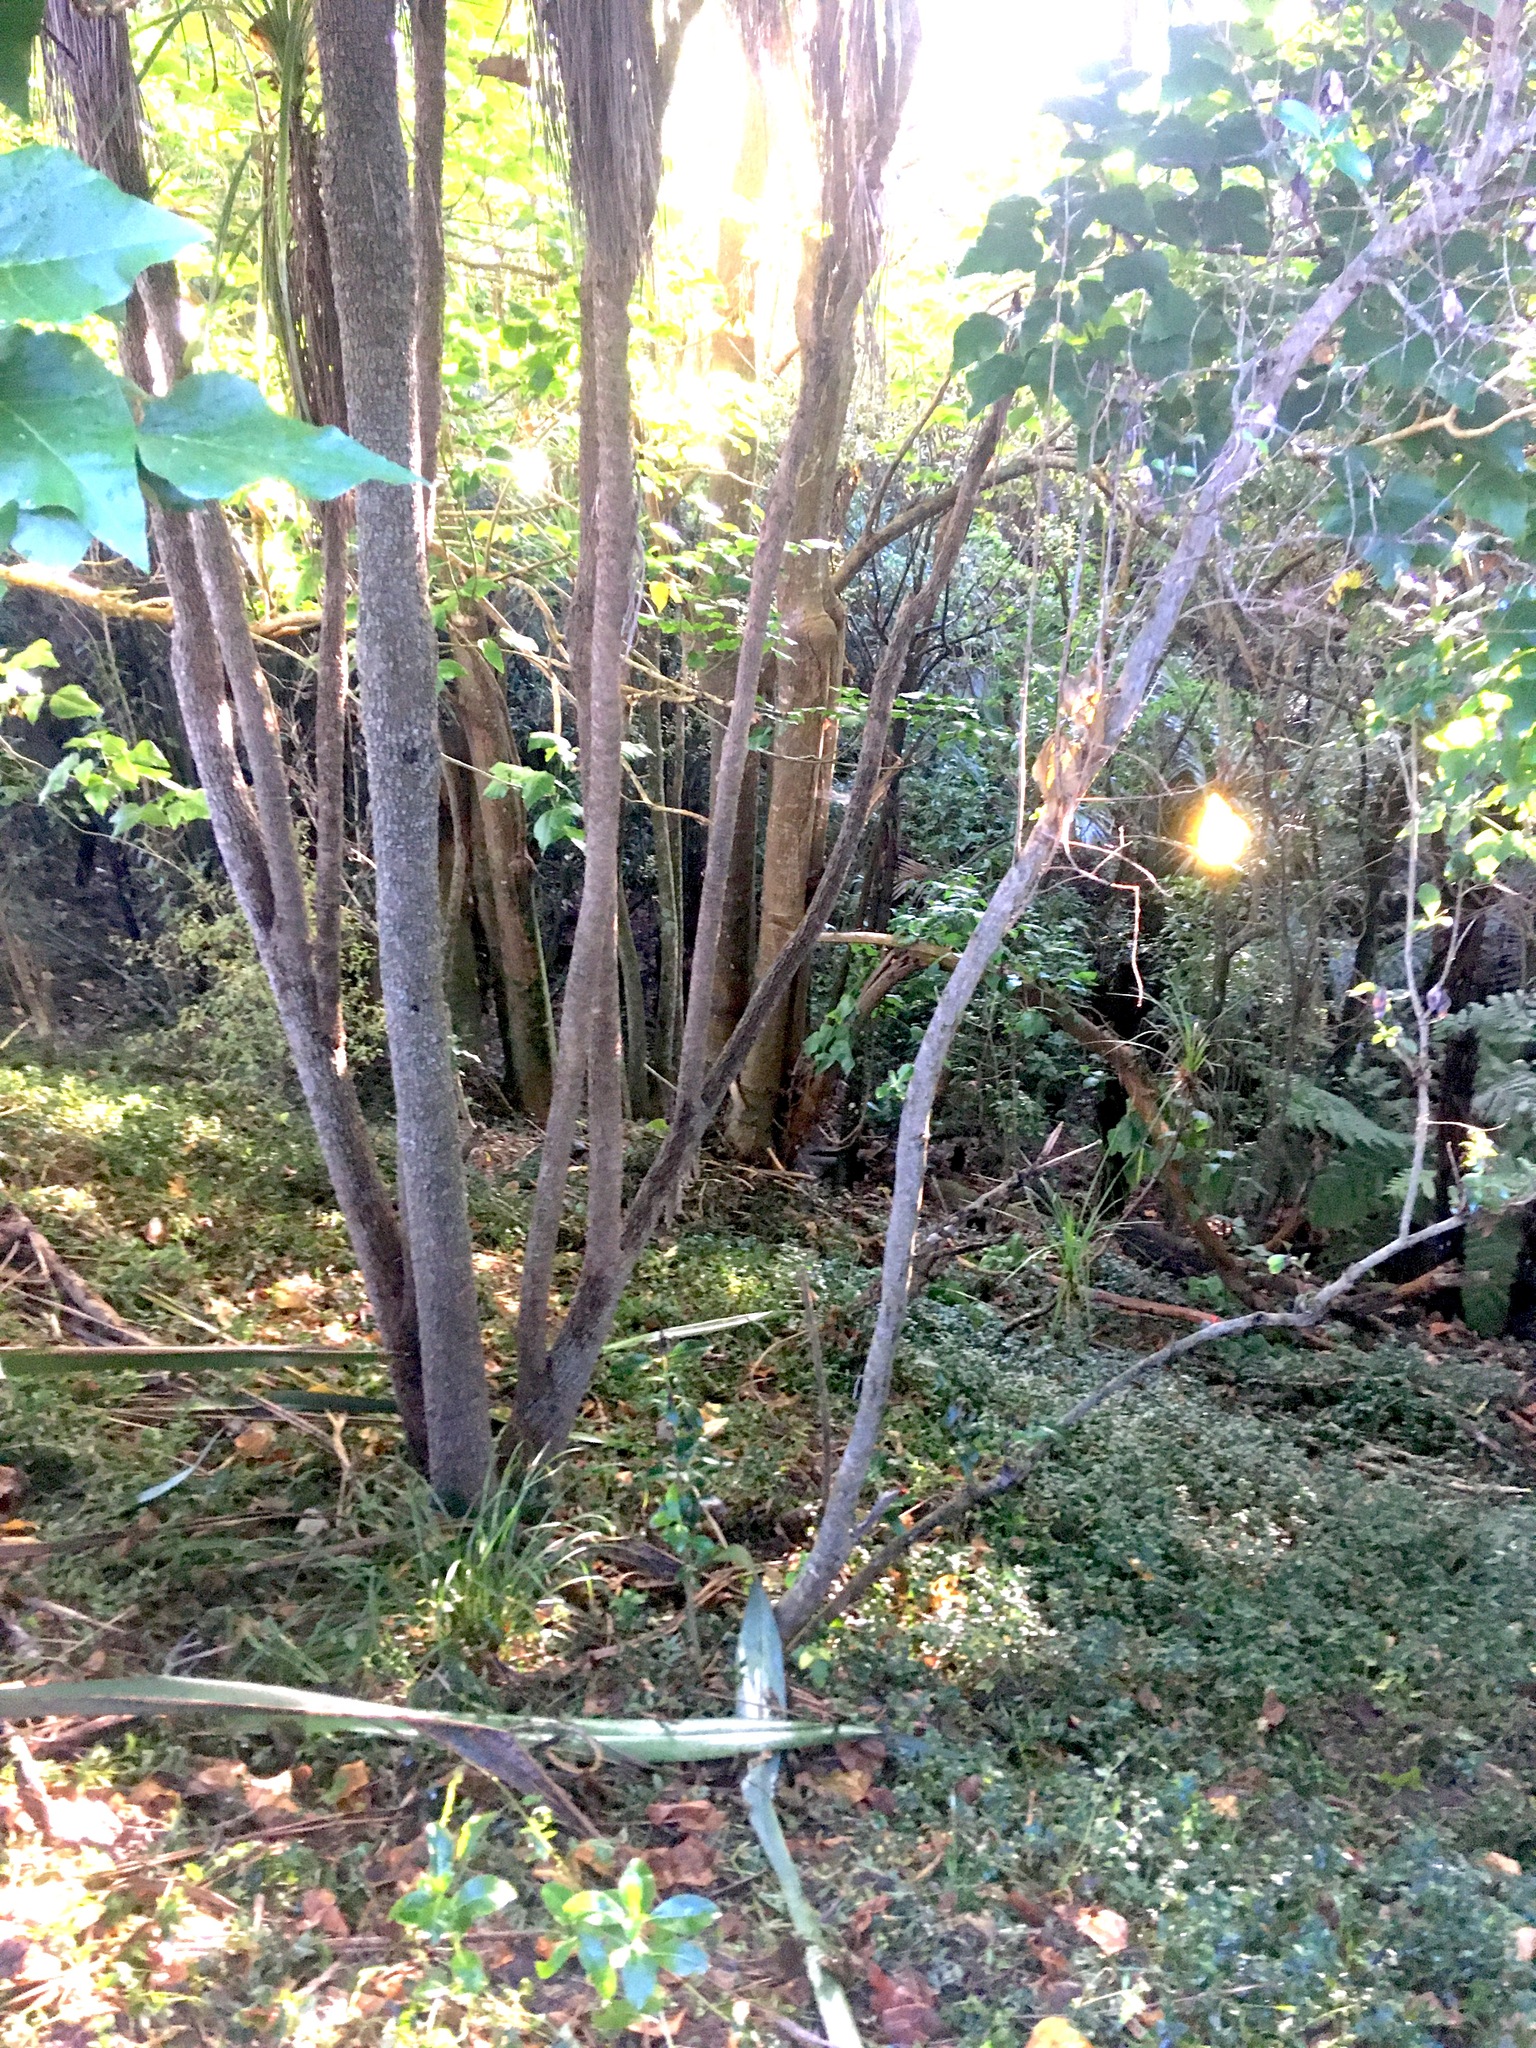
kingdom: Plantae
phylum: Tracheophyta
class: Liliopsida
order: Asparagales
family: Asparagaceae
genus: Cordyline
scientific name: Cordyline australis
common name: Cabbage-palm
